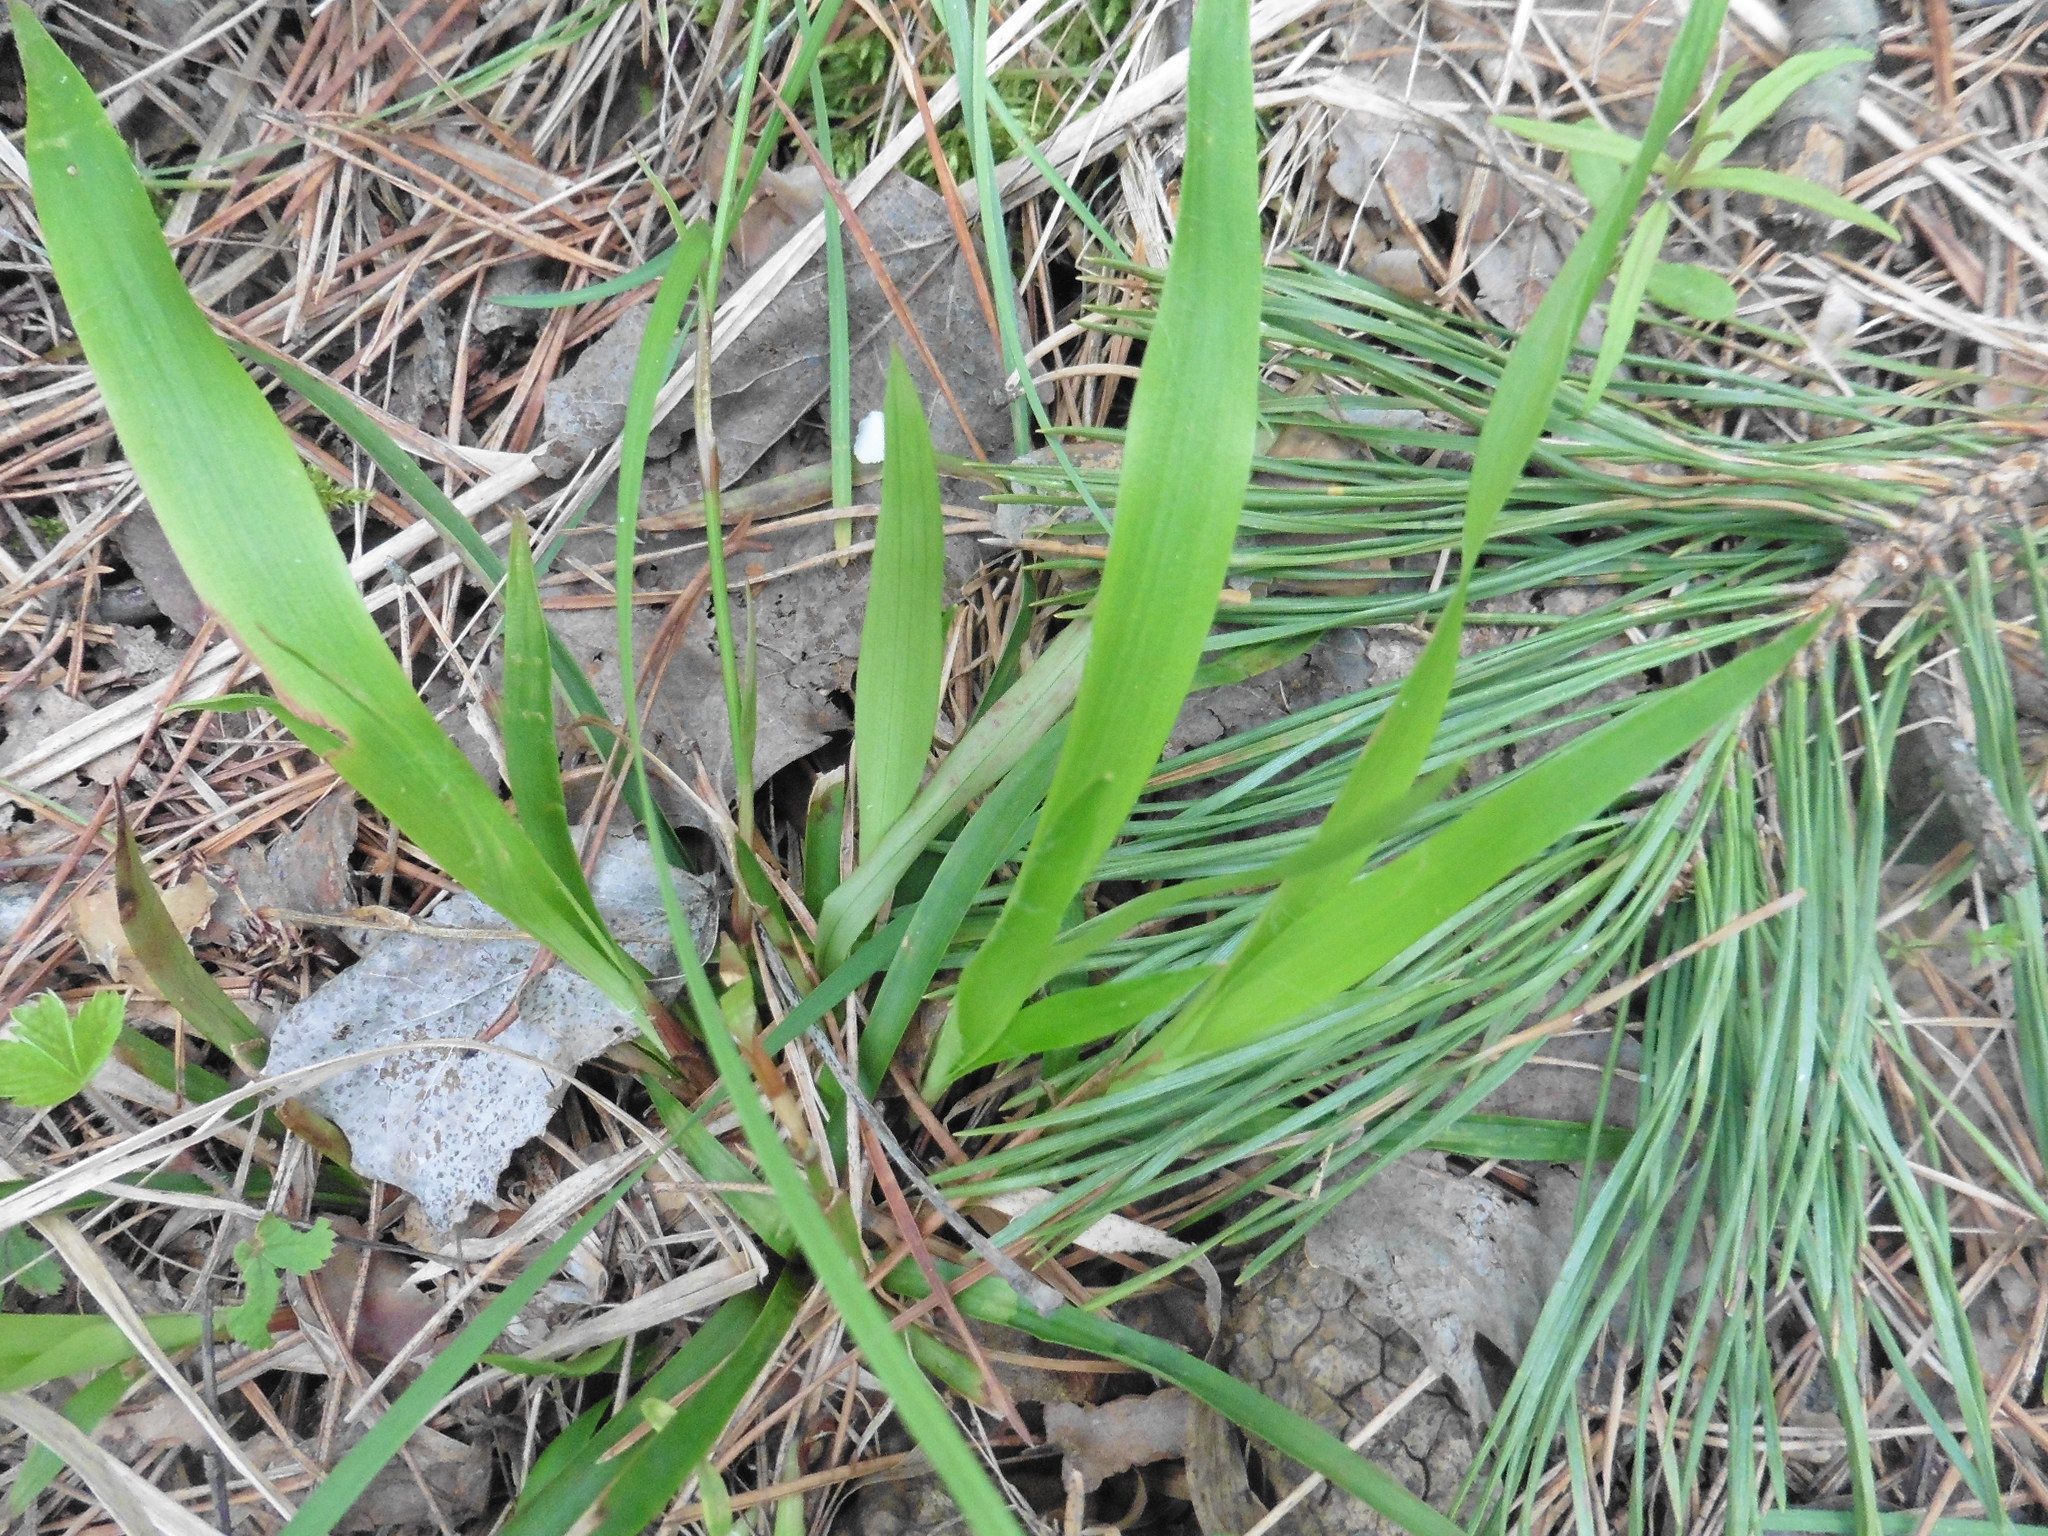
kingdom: Plantae
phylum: Tracheophyta
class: Liliopsida
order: Poales
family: Juncaceae
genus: Luzula
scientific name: Luzula pilosa
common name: Hairy wood-rush
